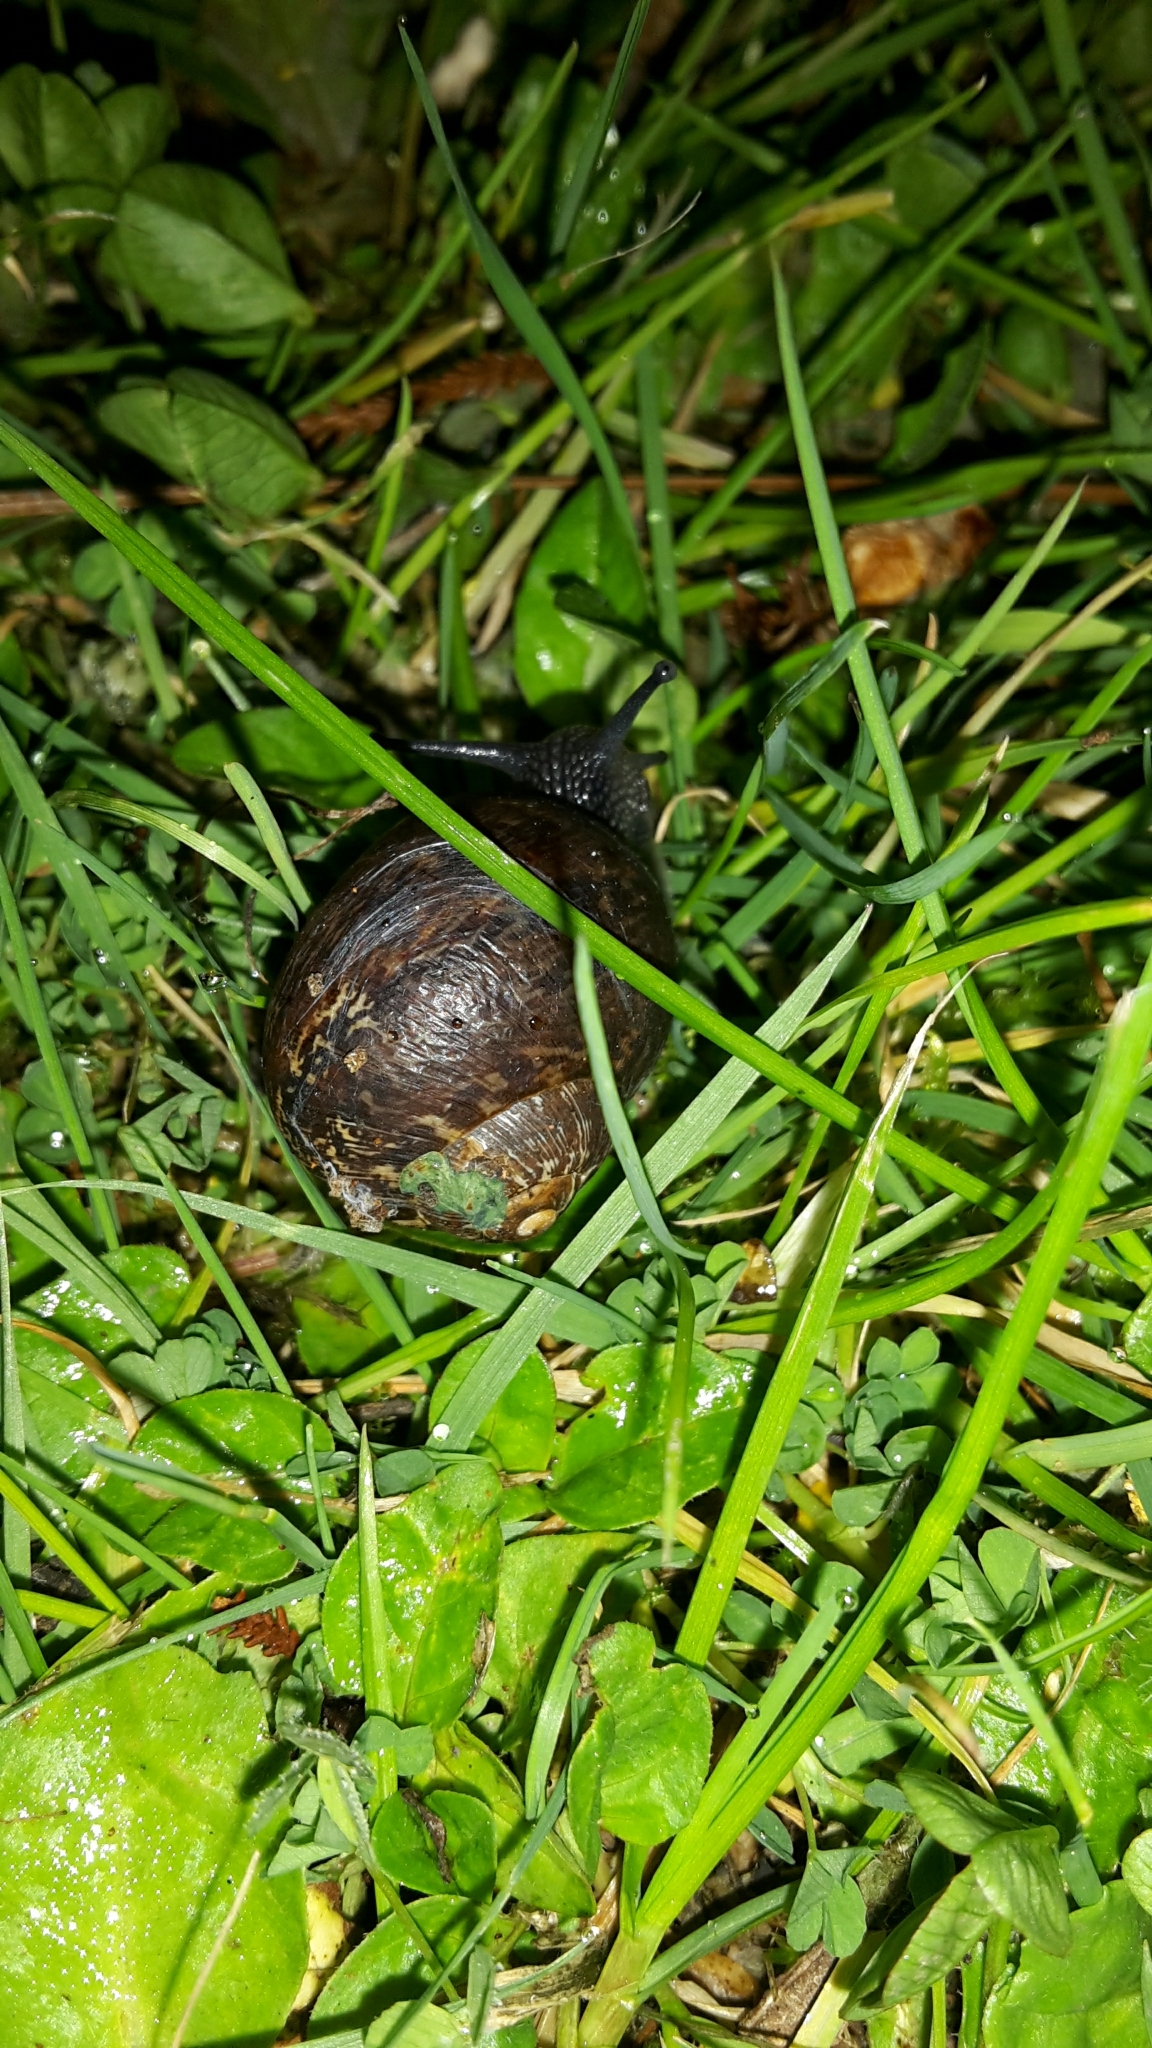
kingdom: Animalia
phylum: Mollusca
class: Gastropoda
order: Stylommatophora
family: Helicidae
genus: Cornu
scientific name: Cornu aspersum
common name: Brown garden snail
